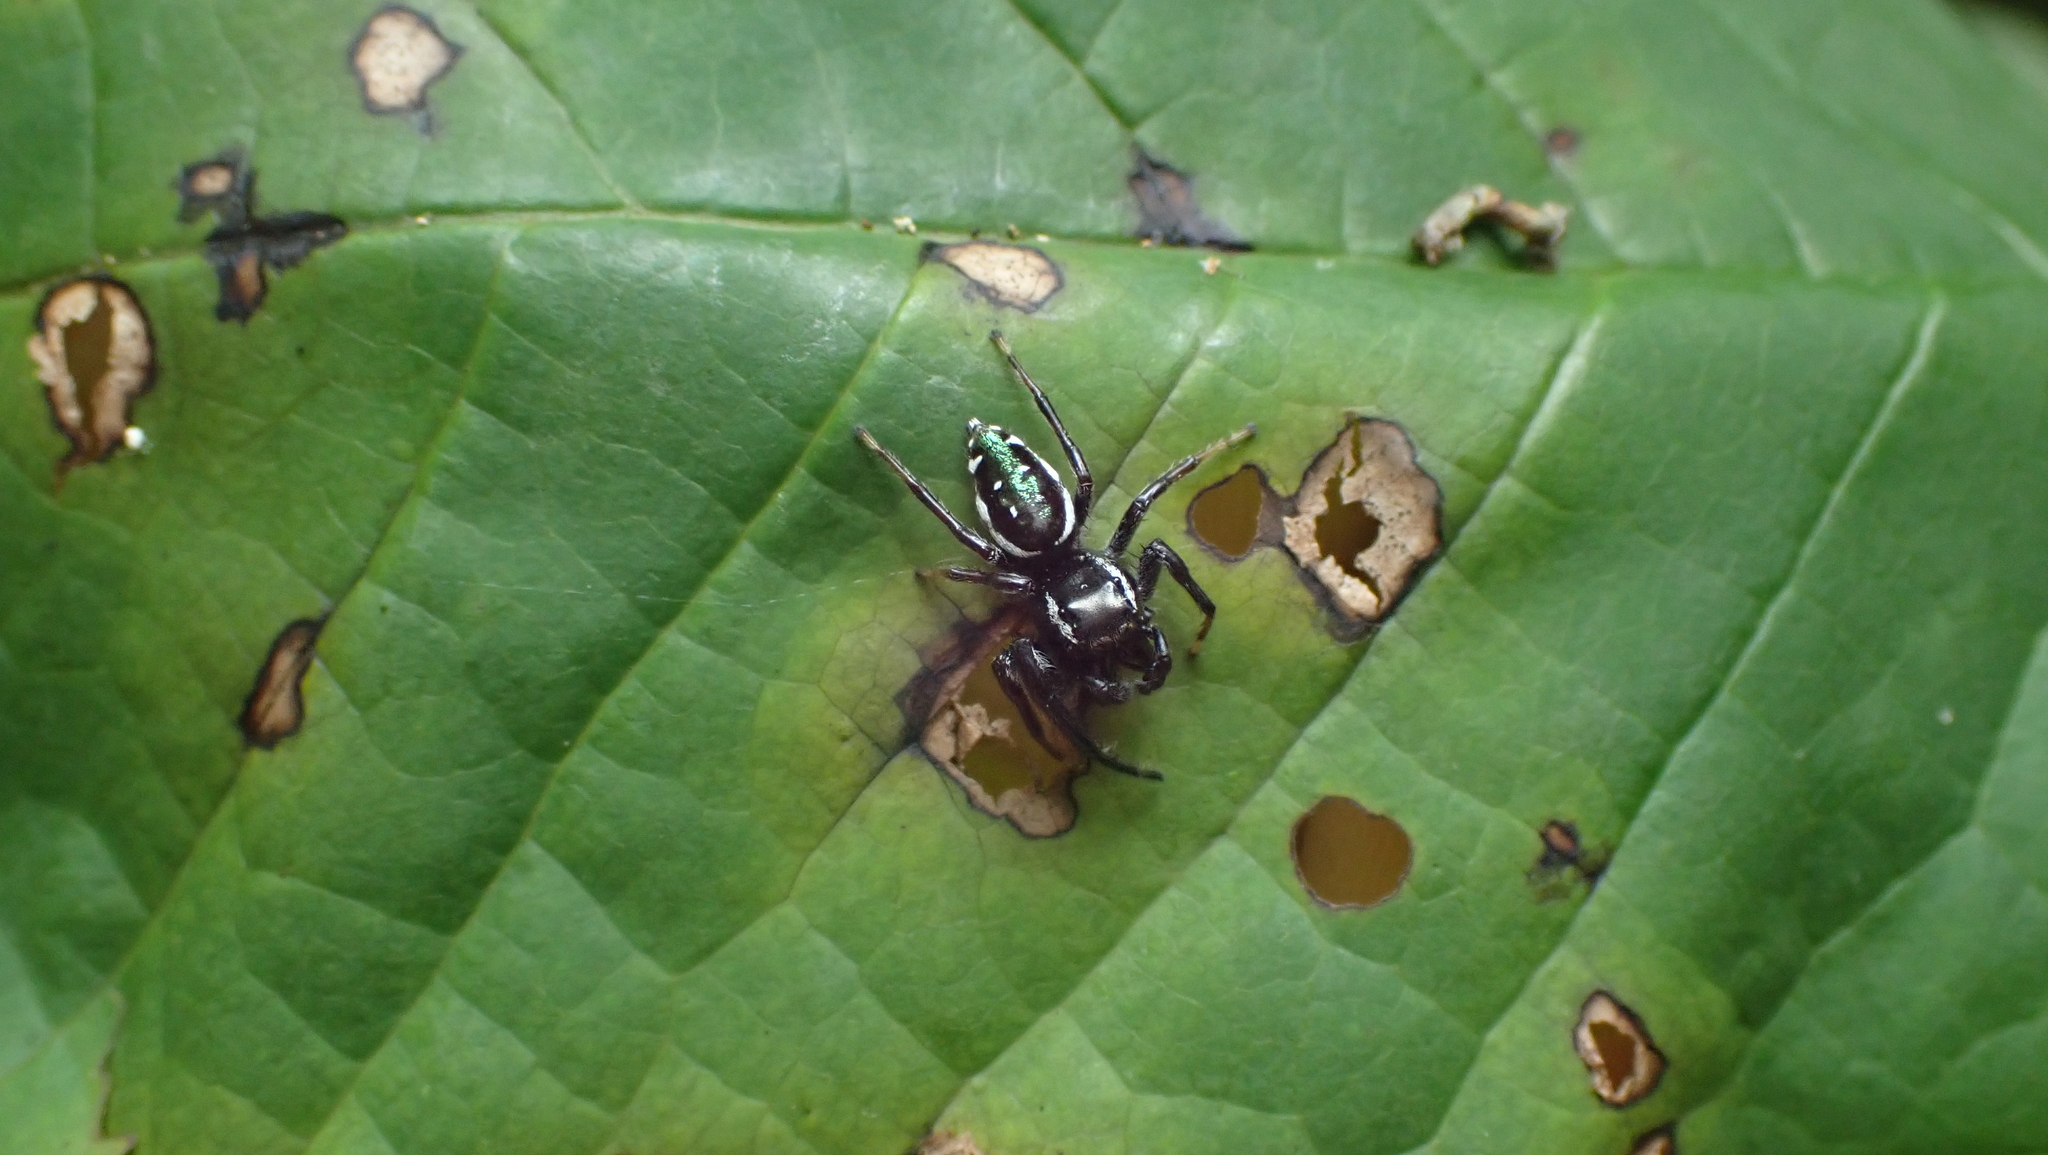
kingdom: Animalia
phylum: Arthropoda
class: Arachnida
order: Araneae
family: Salticidae
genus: Paraphidippus
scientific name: Paraphidippus aurantius
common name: Jumping spiders
